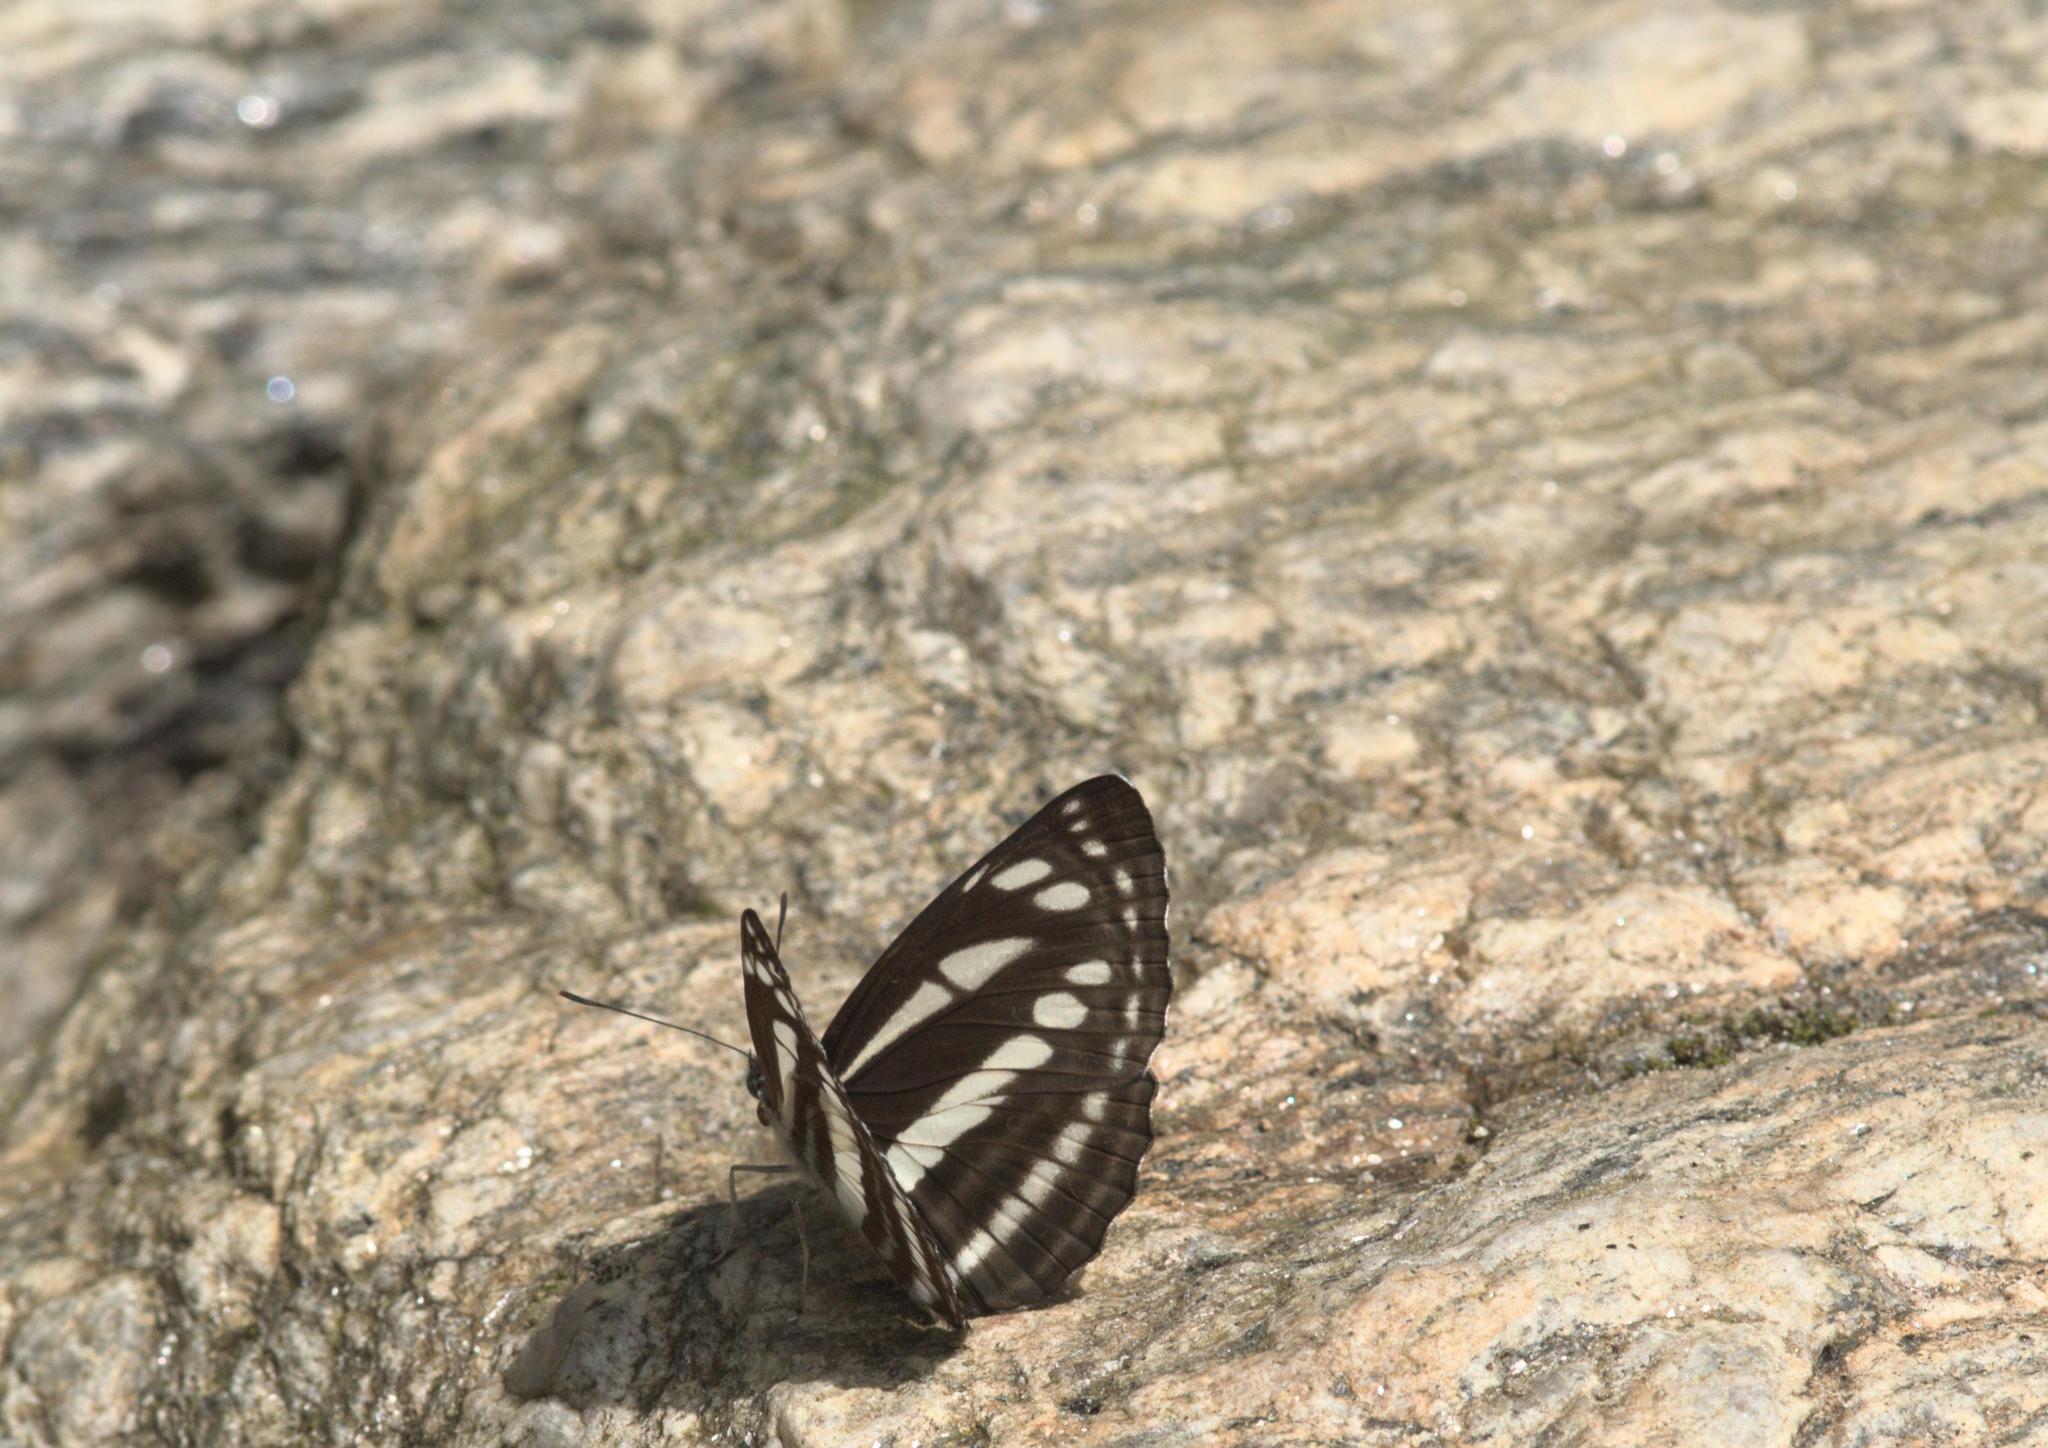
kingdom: Animalia
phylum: Arthropoda
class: Insecta
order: Lepidoptera
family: Nymphalidae
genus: Neptis
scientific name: Neptis soma
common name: Cream-spotted sailor
